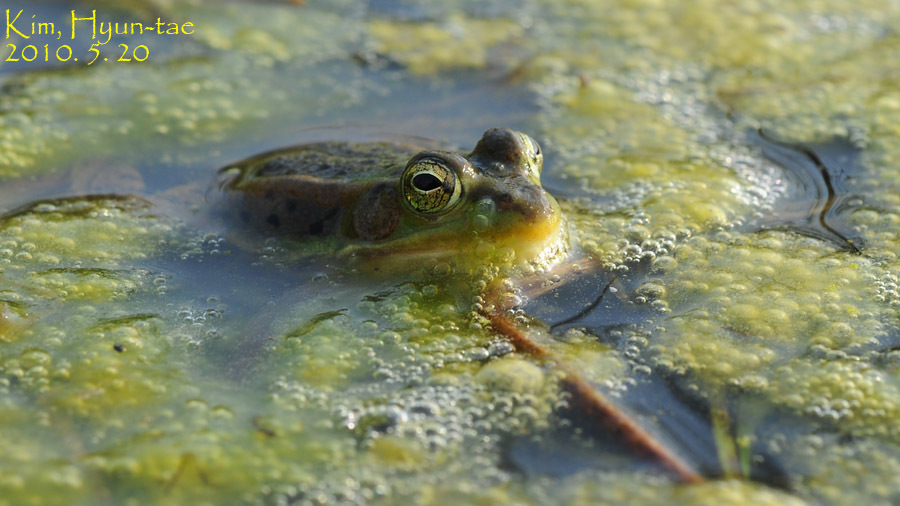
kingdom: Animalia
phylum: Chordata
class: Amphibia
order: Anura
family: Ranidae
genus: Pelophylax
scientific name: Pelophylax chosenicus
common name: Gold-spotted pond frog
